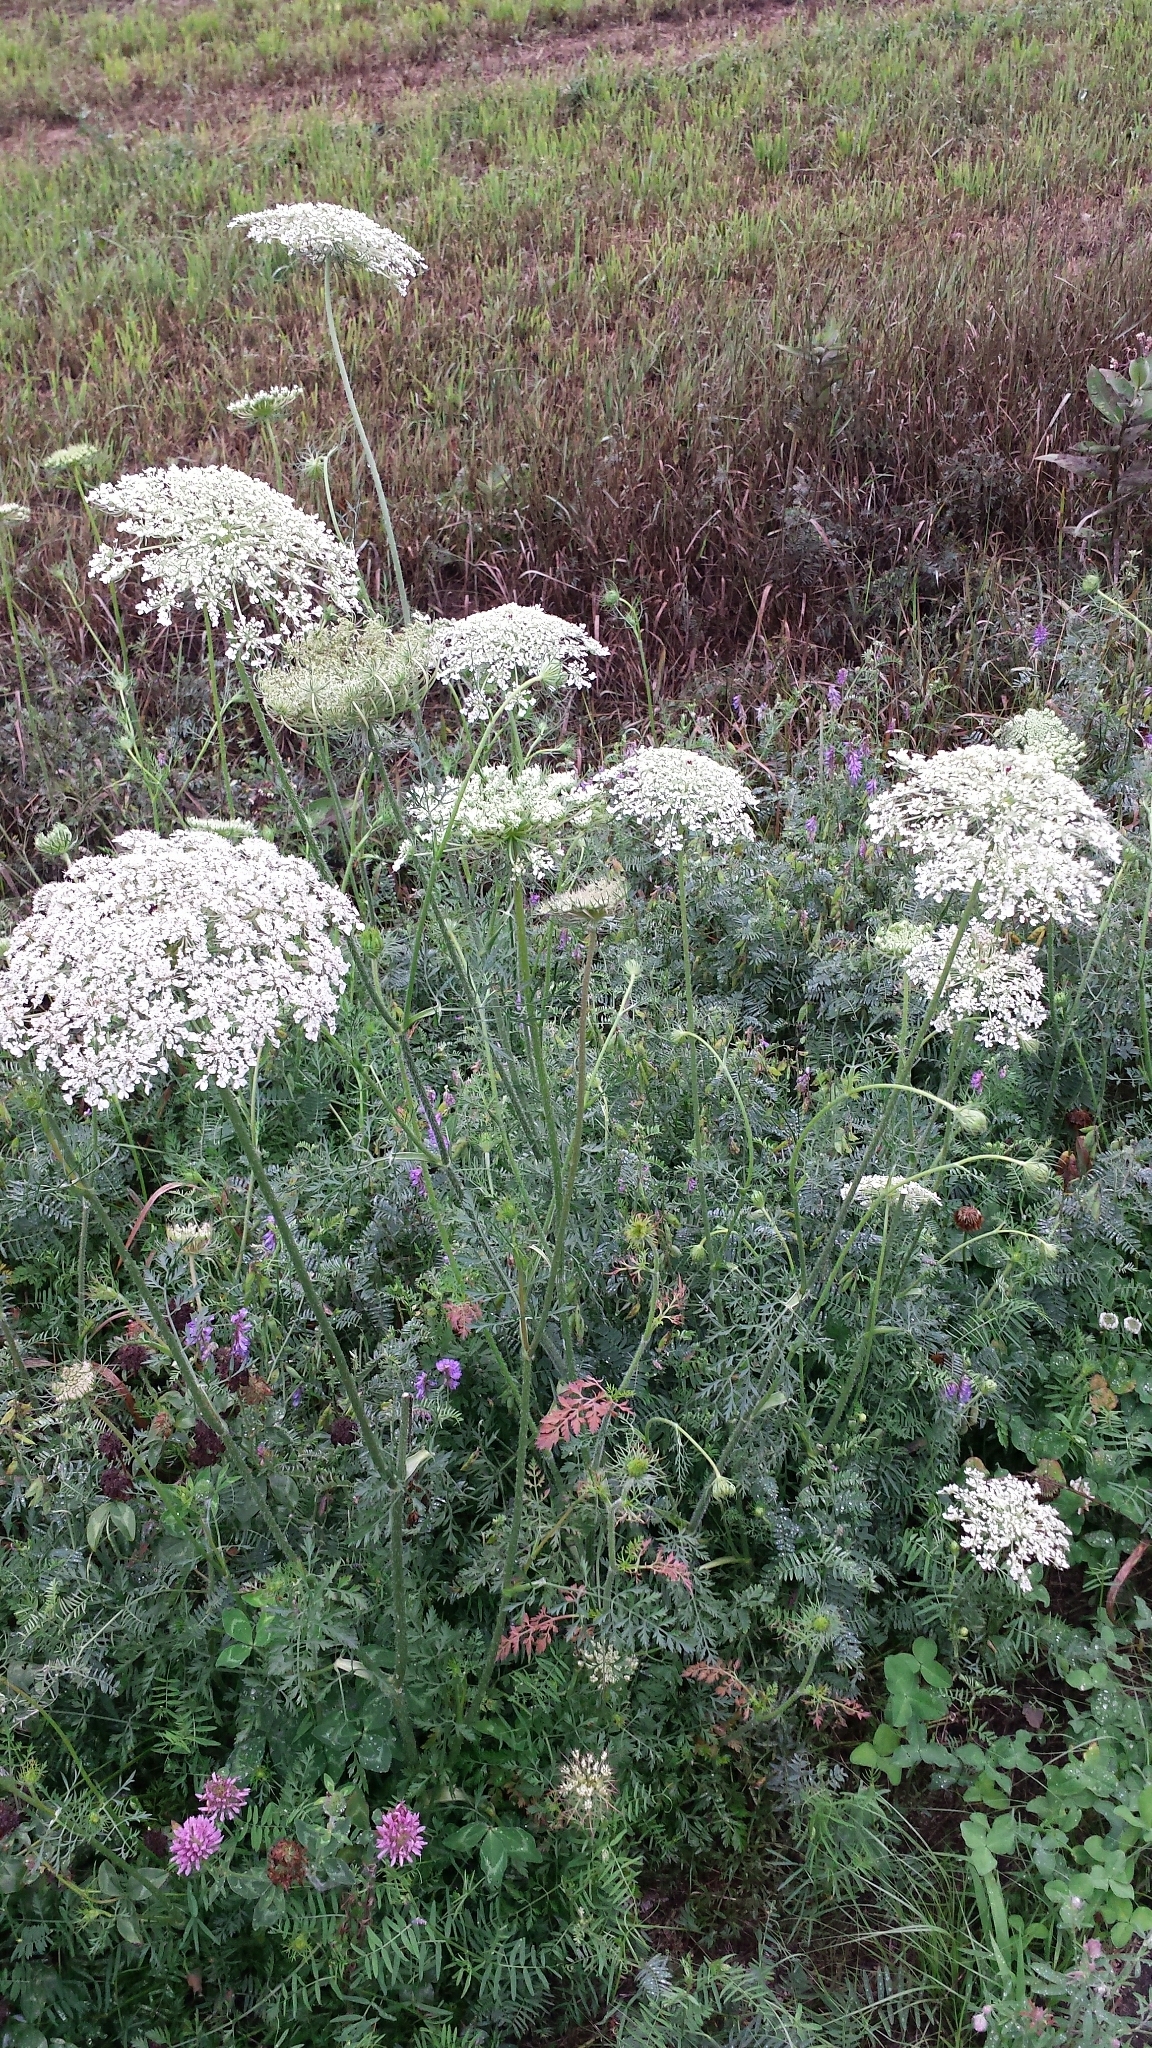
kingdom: Plantae
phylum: Tracheophyta
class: Magnoliopsida
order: Apiales
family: Apiaceae
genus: Daucus
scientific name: Daucus carota
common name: Wild carrot
